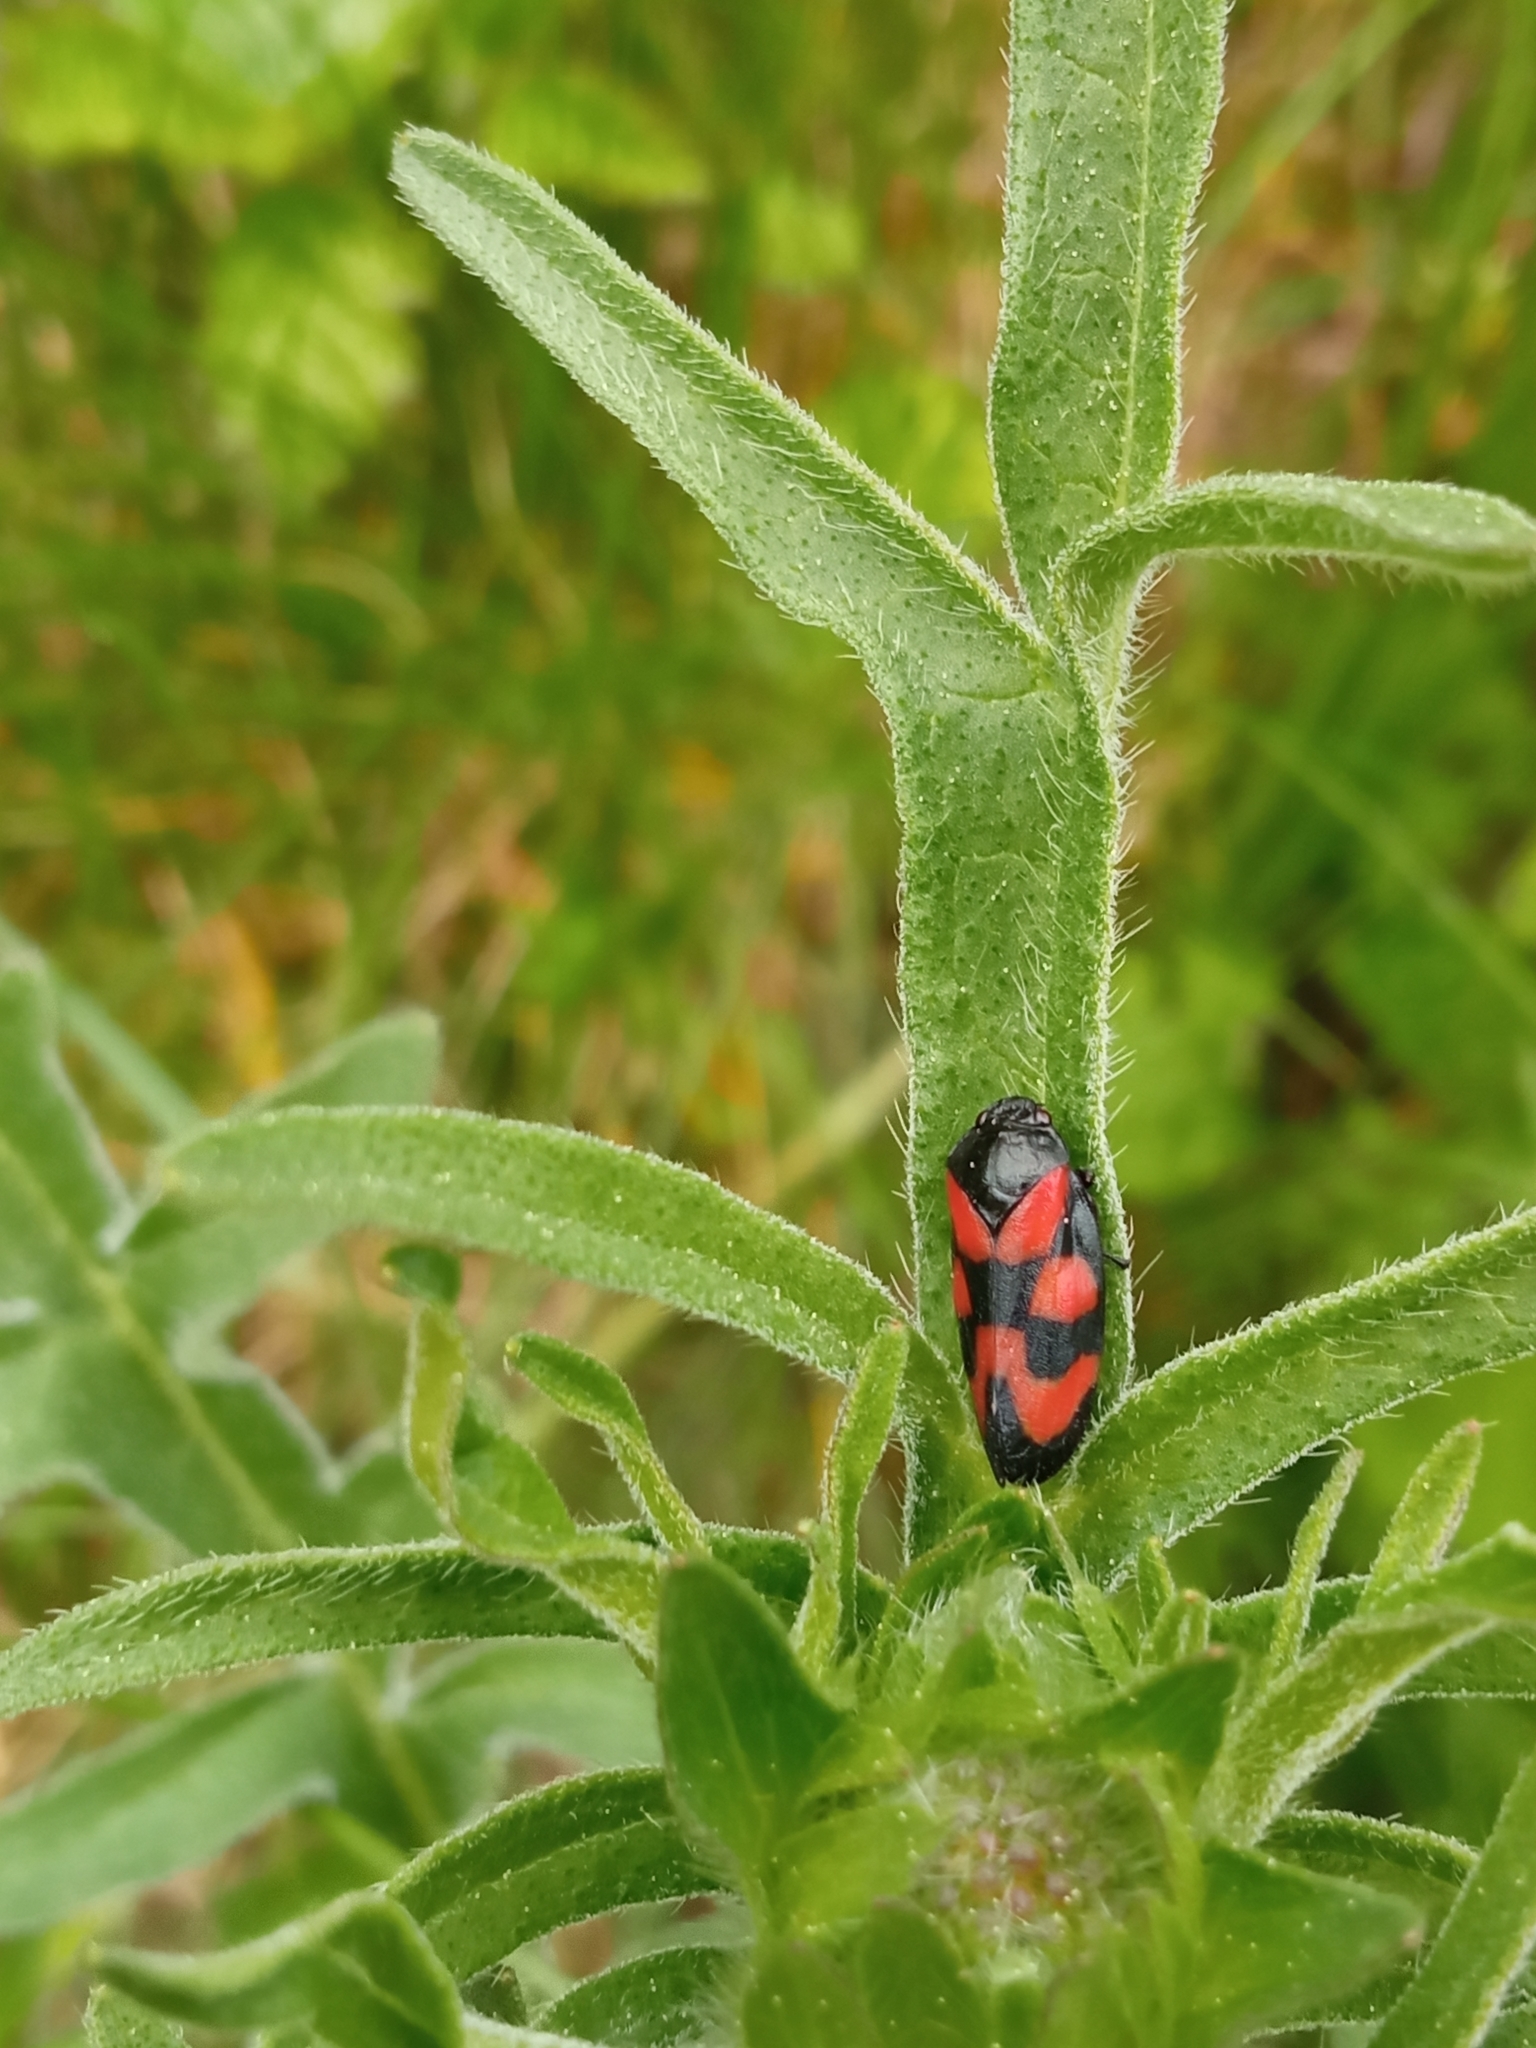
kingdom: Animalia
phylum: Arthropoda
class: Insecta
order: Hemiptera
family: Cercopidae
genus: Cercopis
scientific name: Cercopis vulnerata
